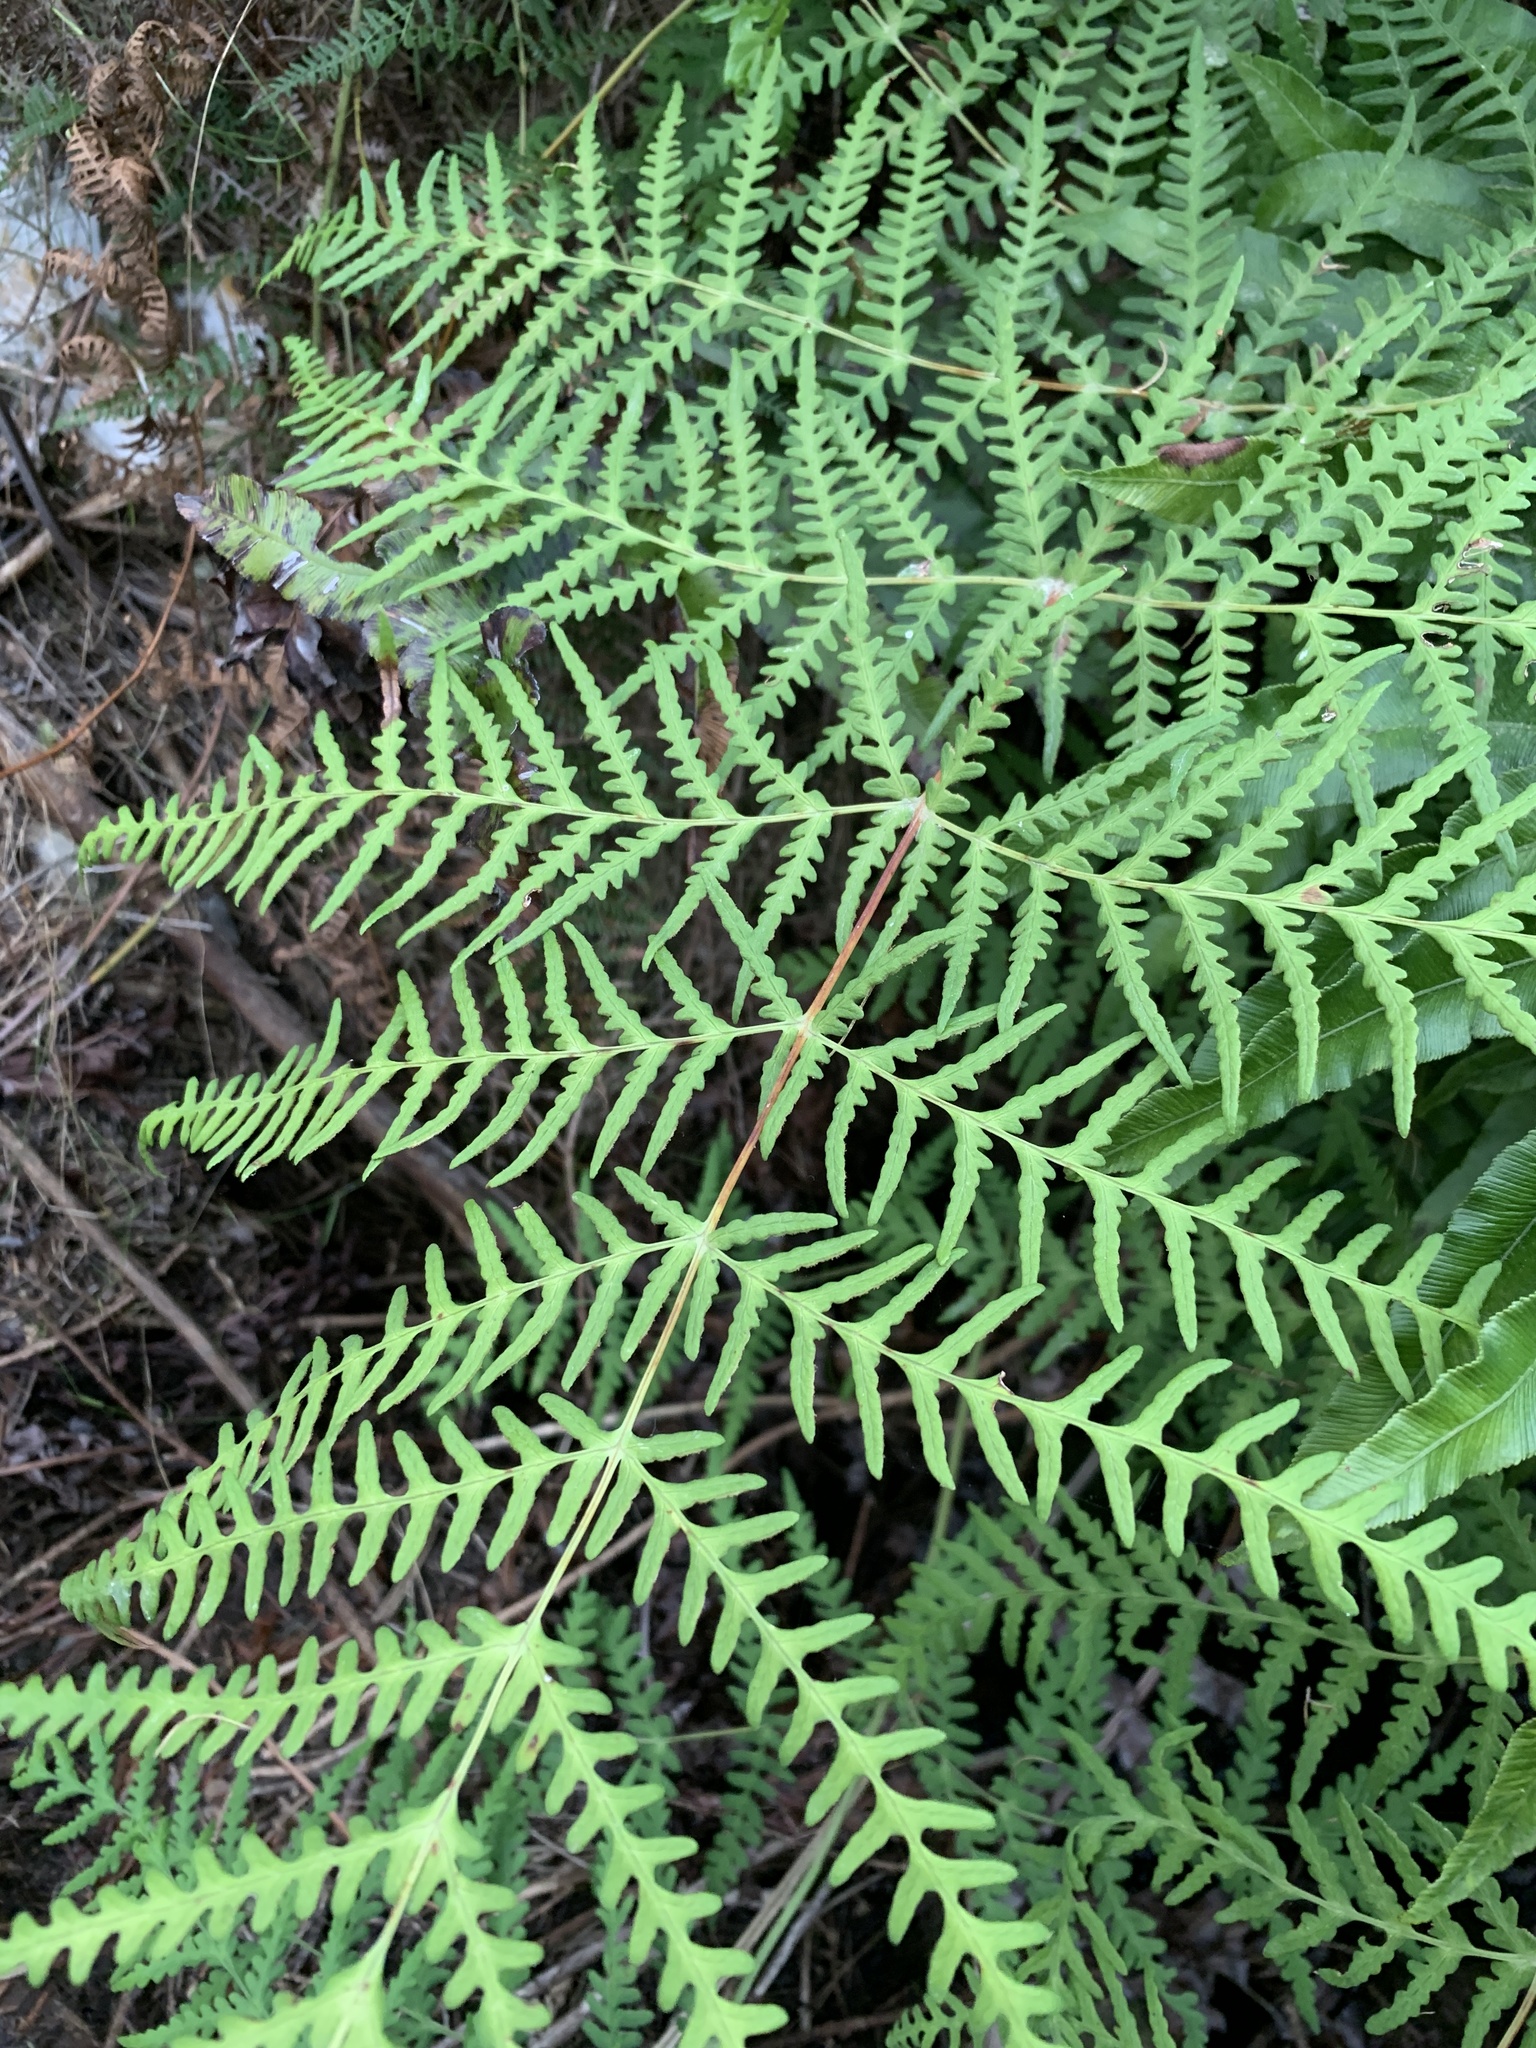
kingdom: Plantae
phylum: Tracheophyta
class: Polypodiopsida
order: Polypodiales
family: Dennstaedtiaceae
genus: Histiopteris
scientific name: Histiopteris incisa
